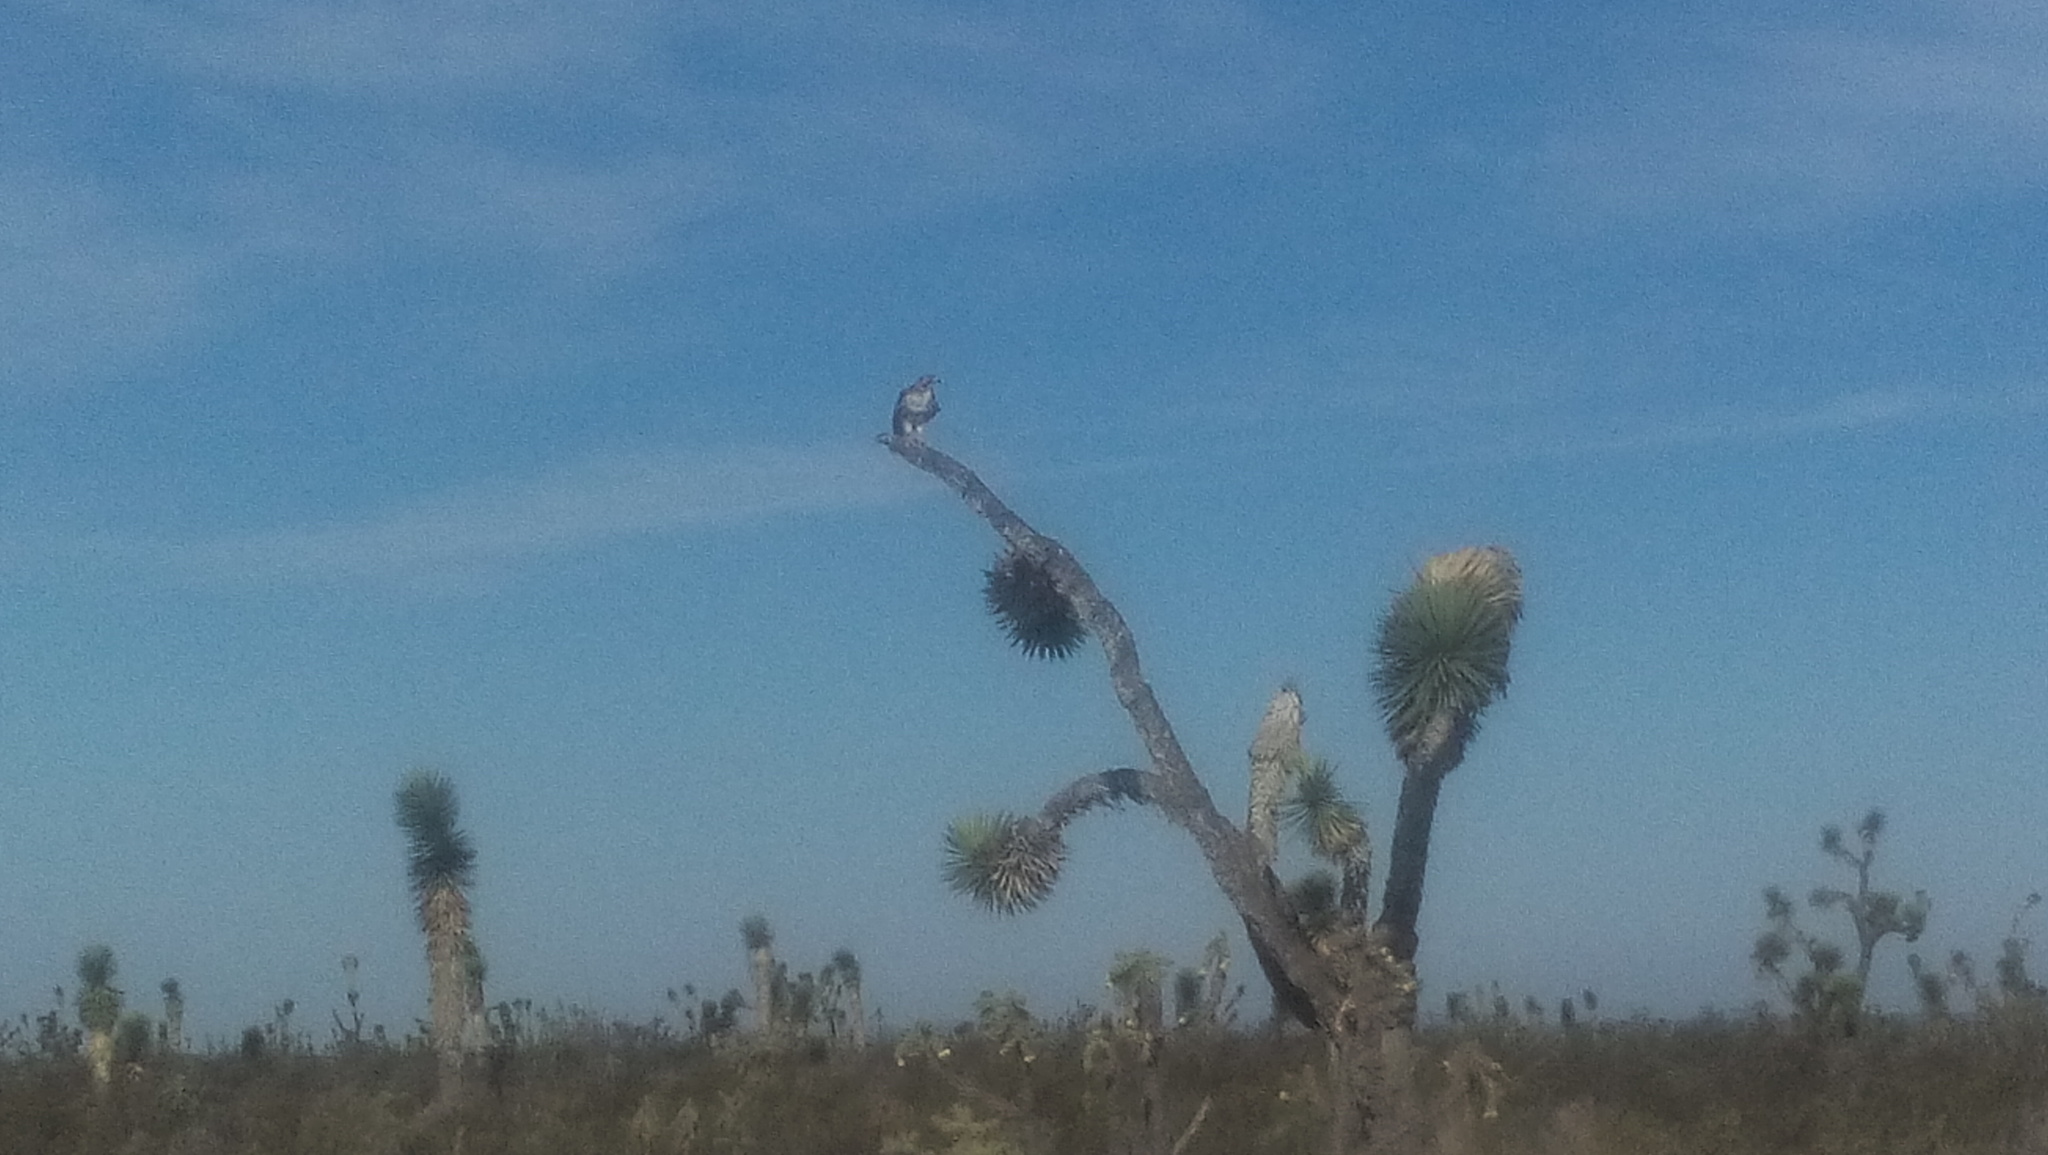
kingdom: Animalia
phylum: Chordata
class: Aves
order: Accipitriformes
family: Accipitridae
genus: Buteo
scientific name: Buteo jamaicensis
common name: Red-tailed hawk
